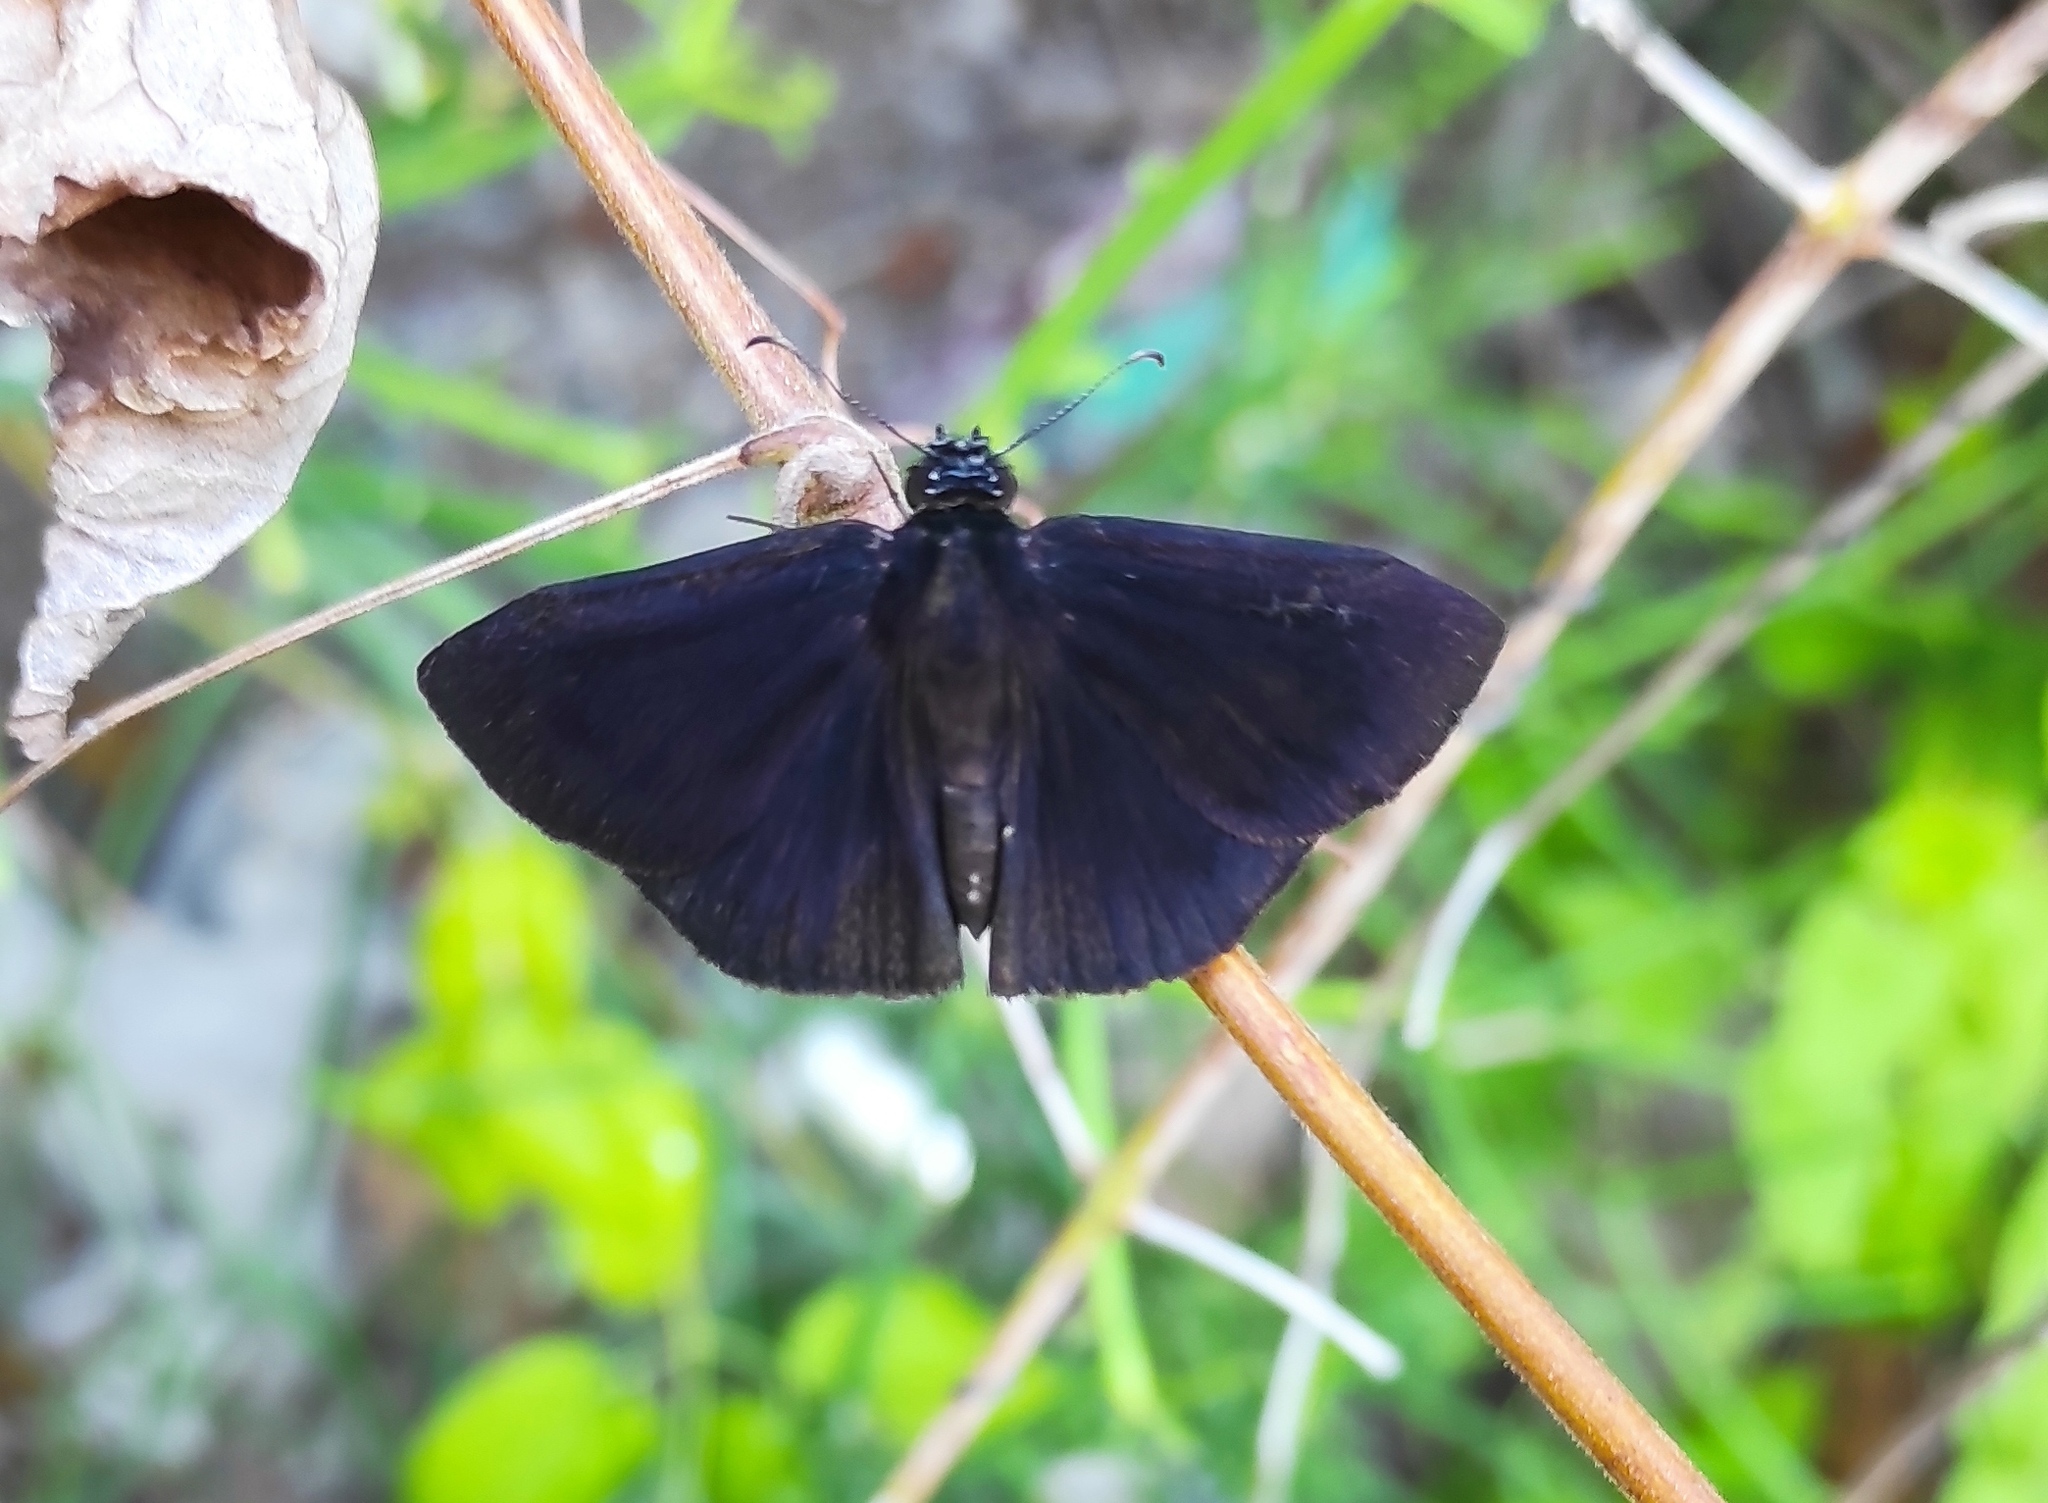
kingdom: Animalia
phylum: Arthropoda
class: Insecta
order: Lepidoptera
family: Hesperiidae
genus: Ephyriades
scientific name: Ephyriades arcas
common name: Caribbean duskywing
